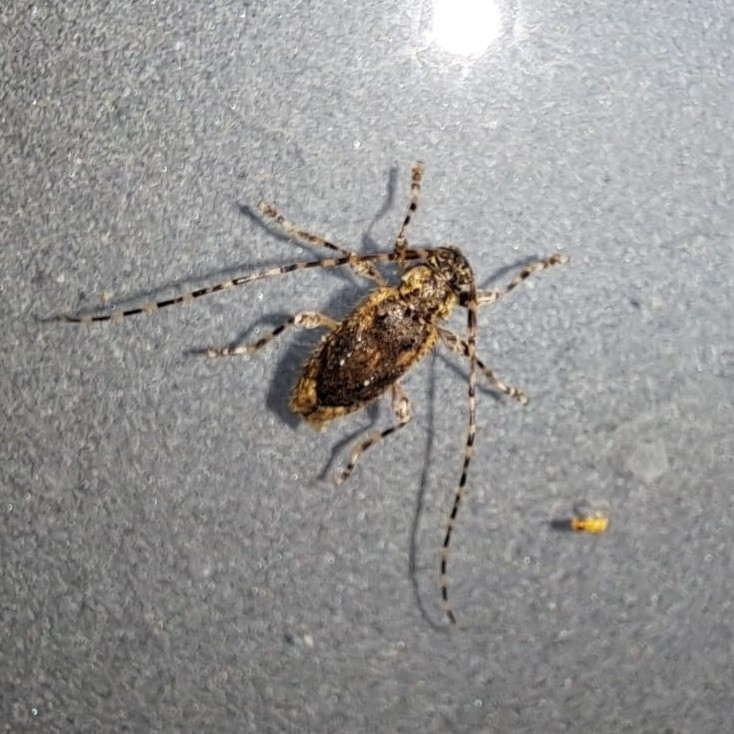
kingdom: Animalia
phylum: Arthropoda
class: Insecta
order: Coleoptera
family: Cerambycidae
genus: Eutrichillus
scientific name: Eutrichillus comus
